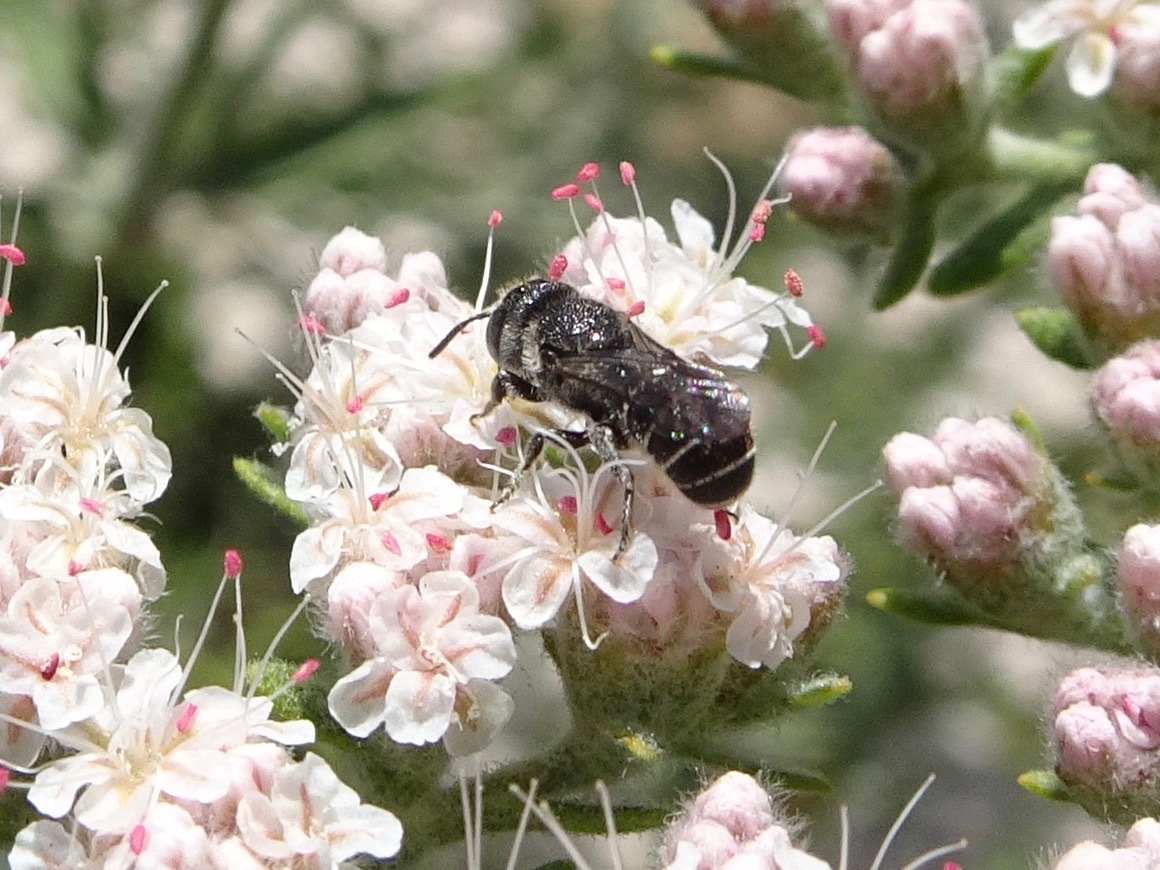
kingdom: Animalia
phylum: Arthropoda
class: Insecta
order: Hymenoptera
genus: Neotrypetes
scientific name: Neotrypetes
